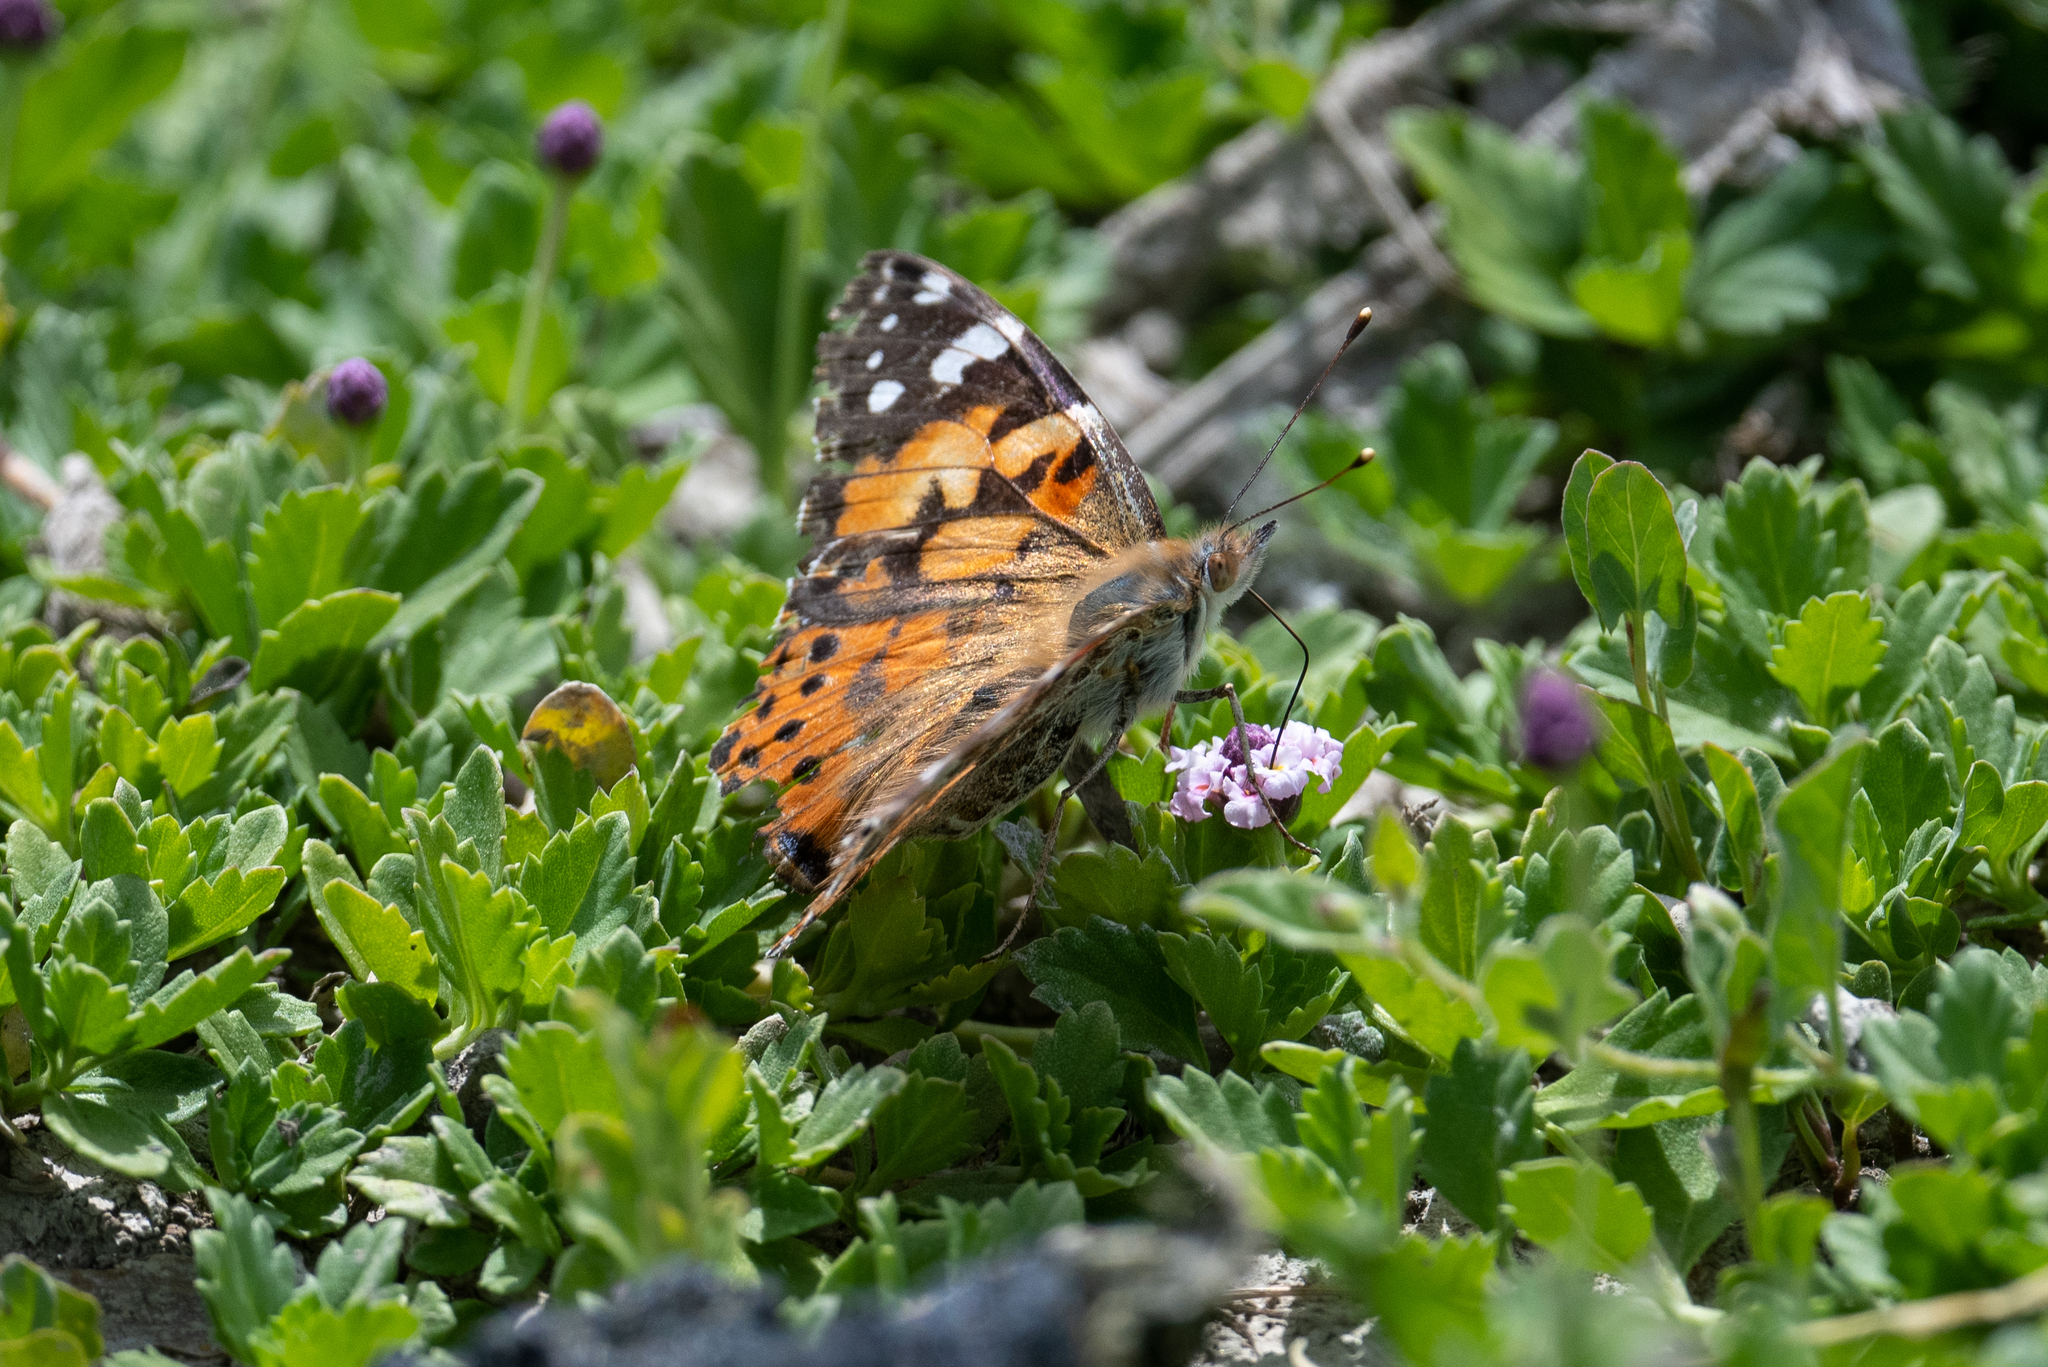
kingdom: Animalia
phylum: Arthropoda
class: Insecta
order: Lepidoptera
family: Nymphalidae
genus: Vanessa
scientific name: Vanessa cardui
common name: Painted lady
